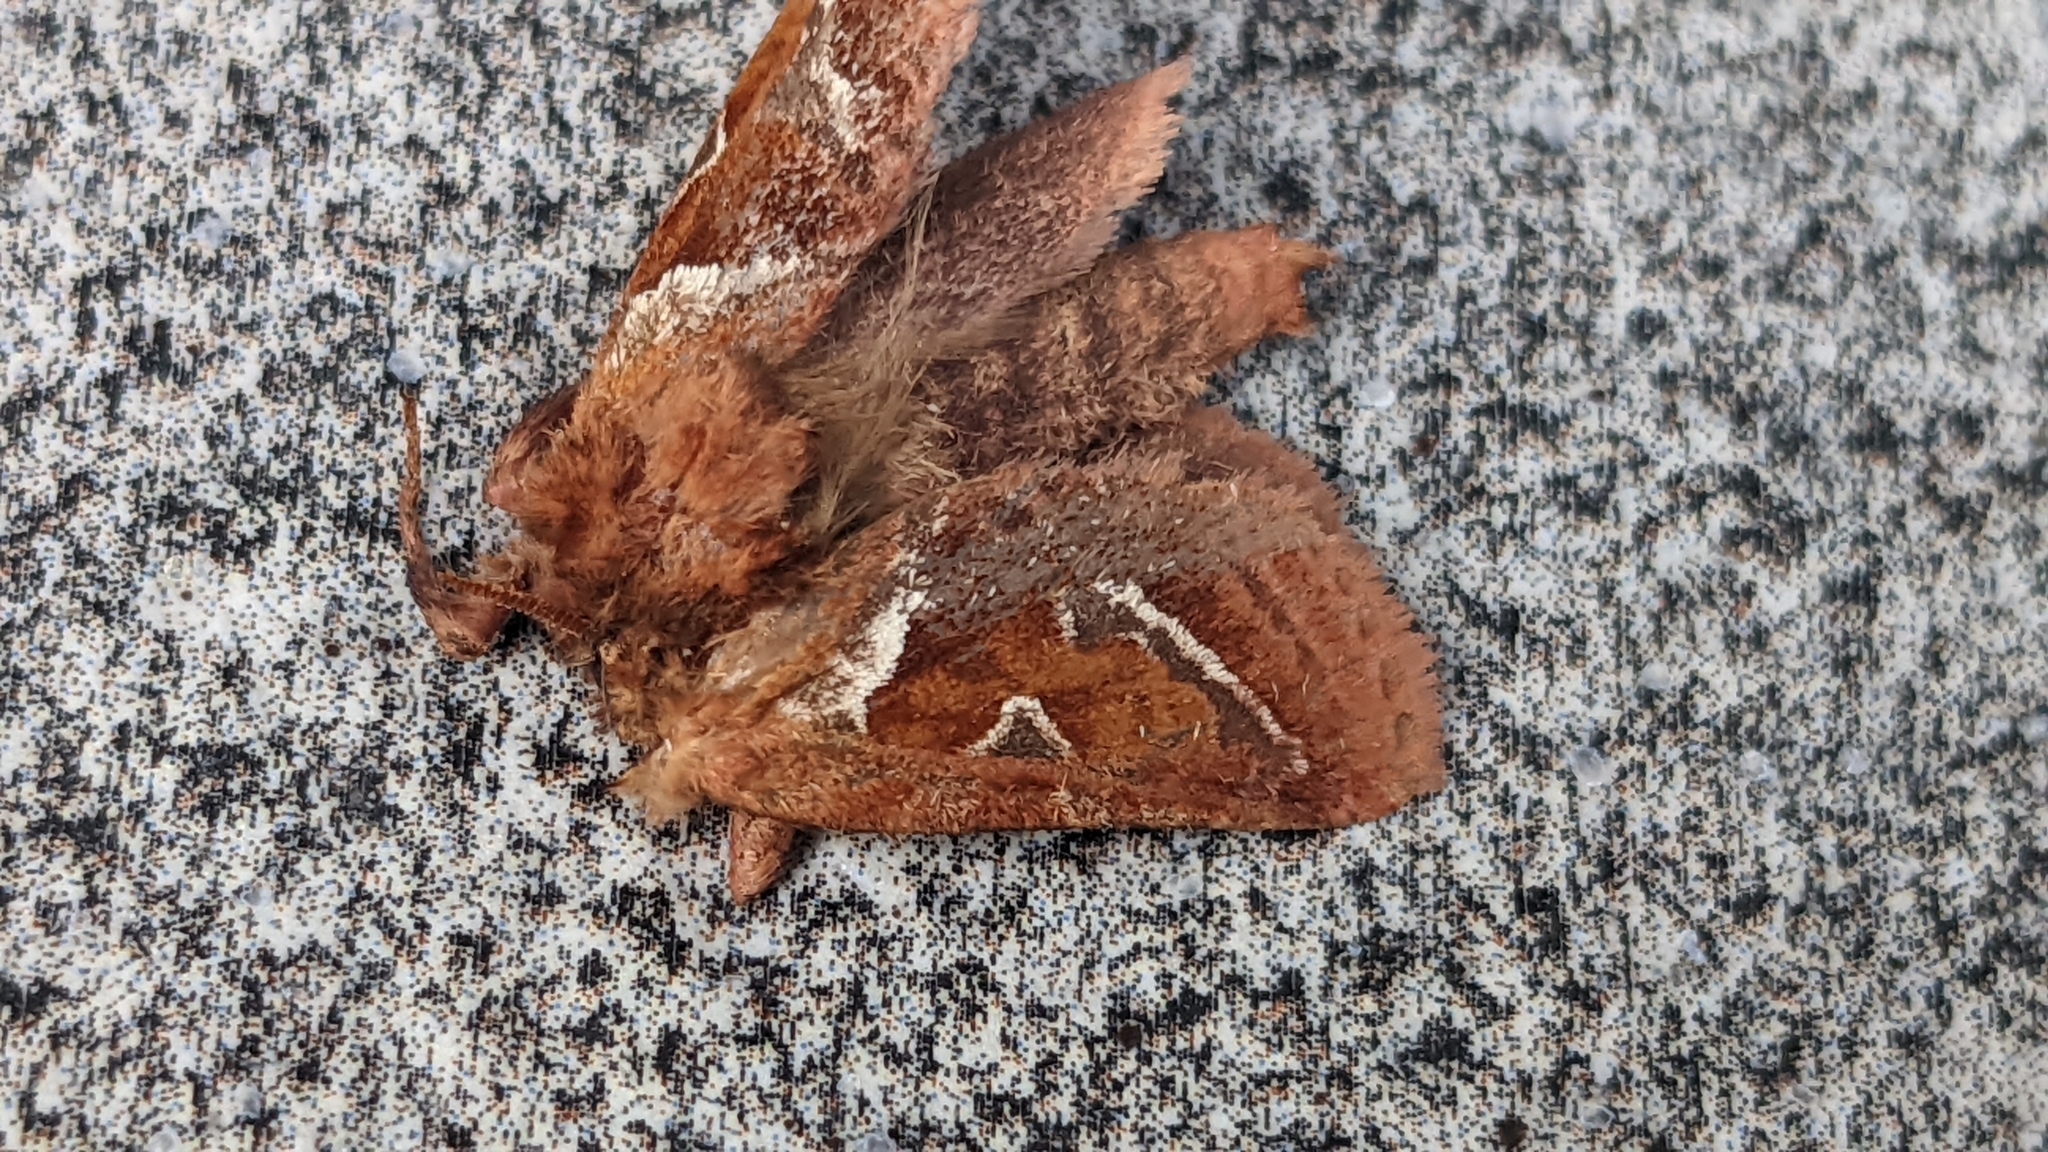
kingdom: Animalia
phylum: Arthropoda
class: Insecta
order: Lepidoptera
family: Hepialidae
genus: Triodia
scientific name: Triodia sylvina
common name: Orange swift
